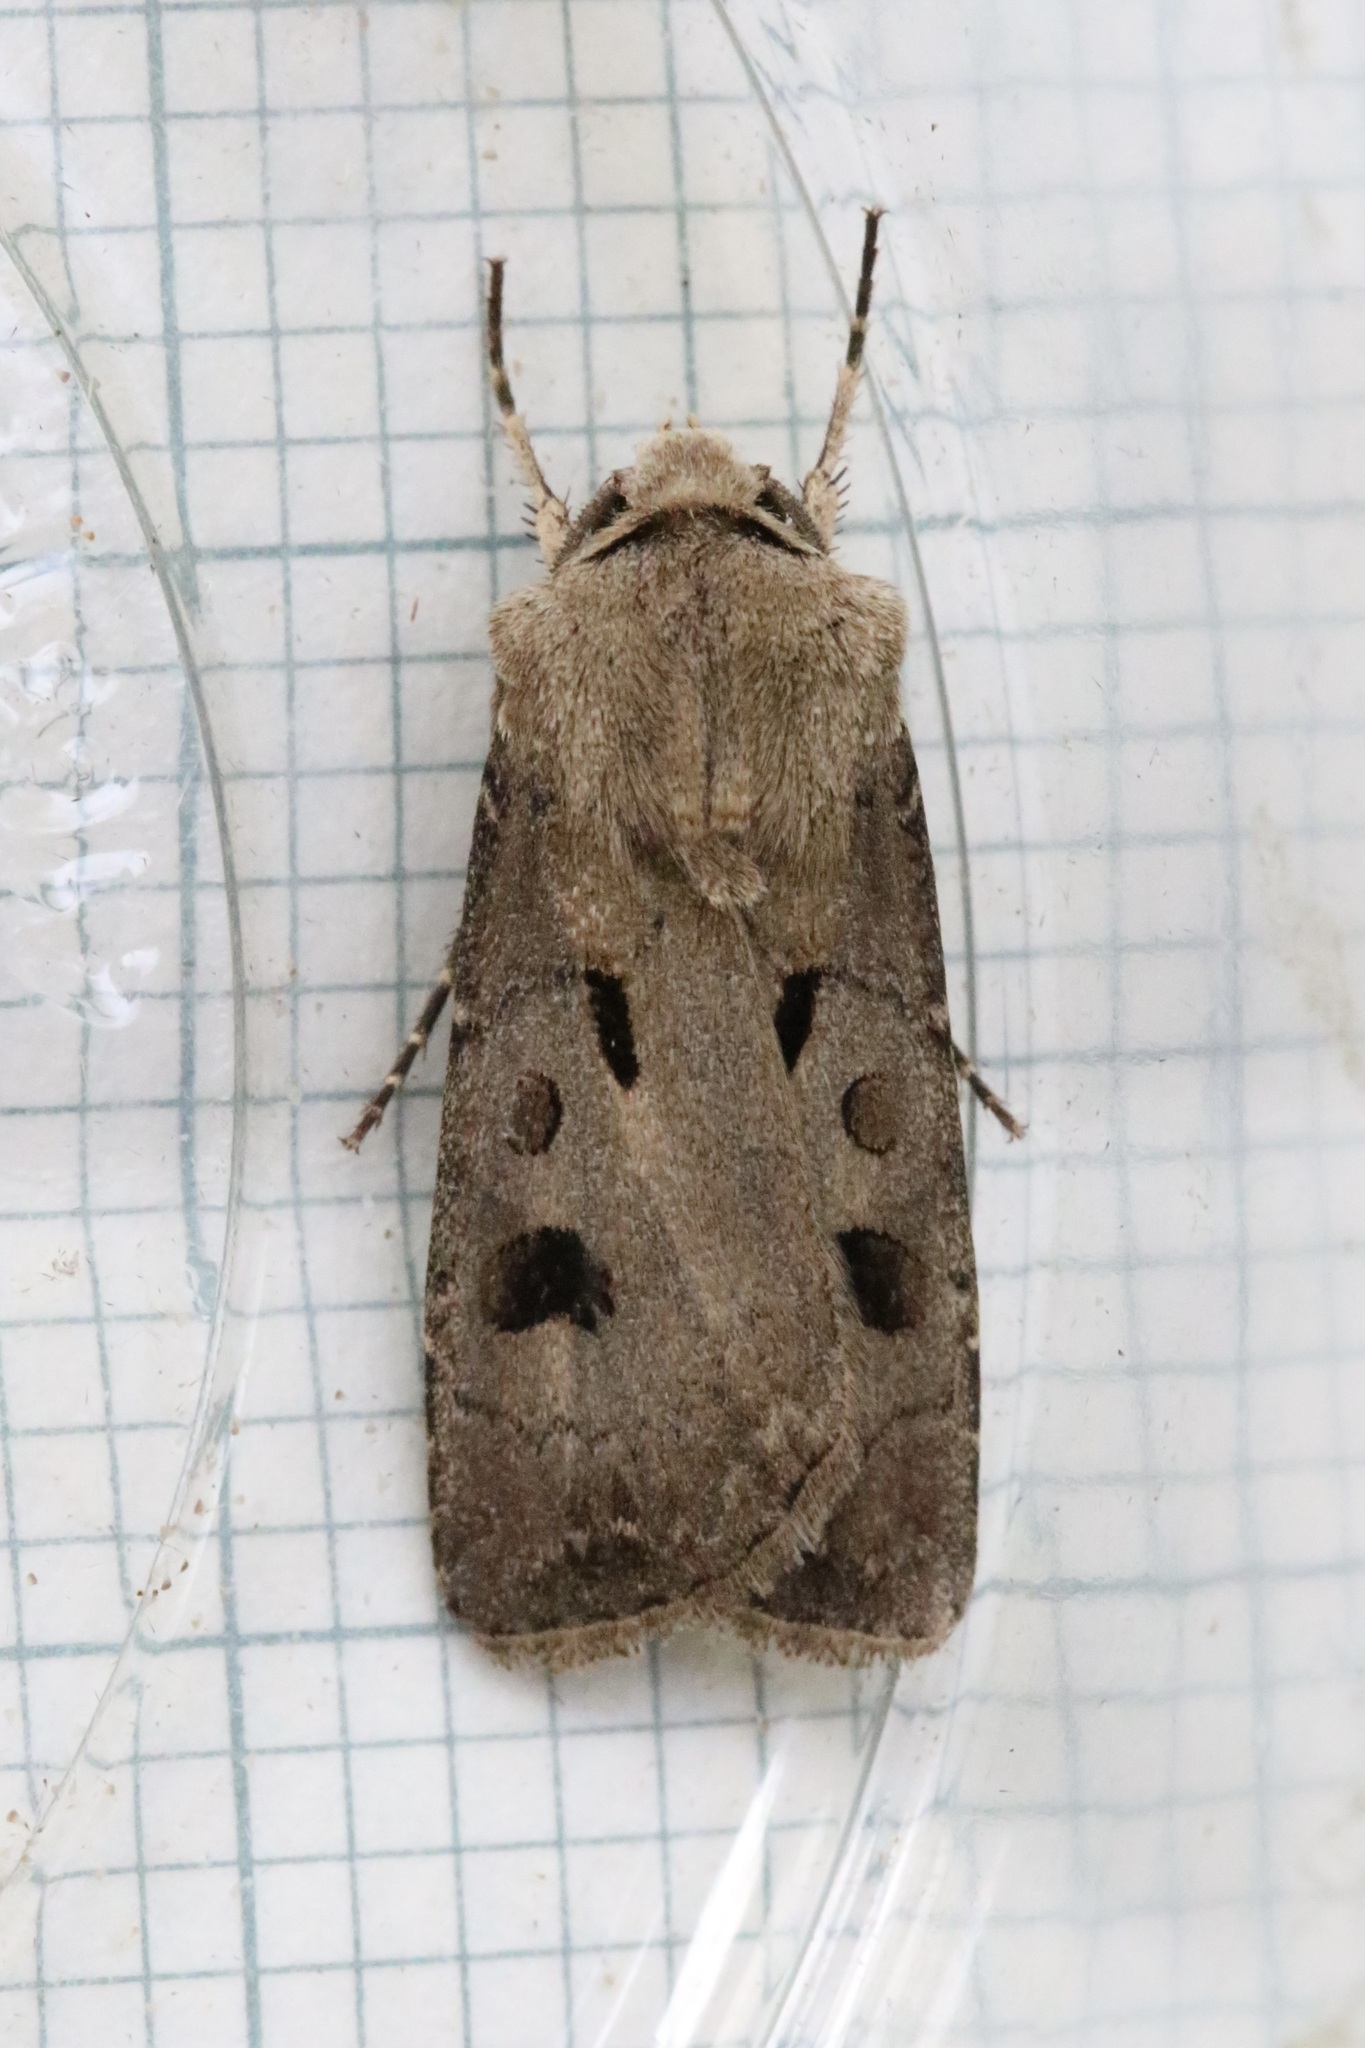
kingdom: Animalia
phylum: Arthropoda
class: Insecta
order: Lepidoptera
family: Noctuidae
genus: Agrotis
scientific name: Agrotis exclamationis
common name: Heart and dart
